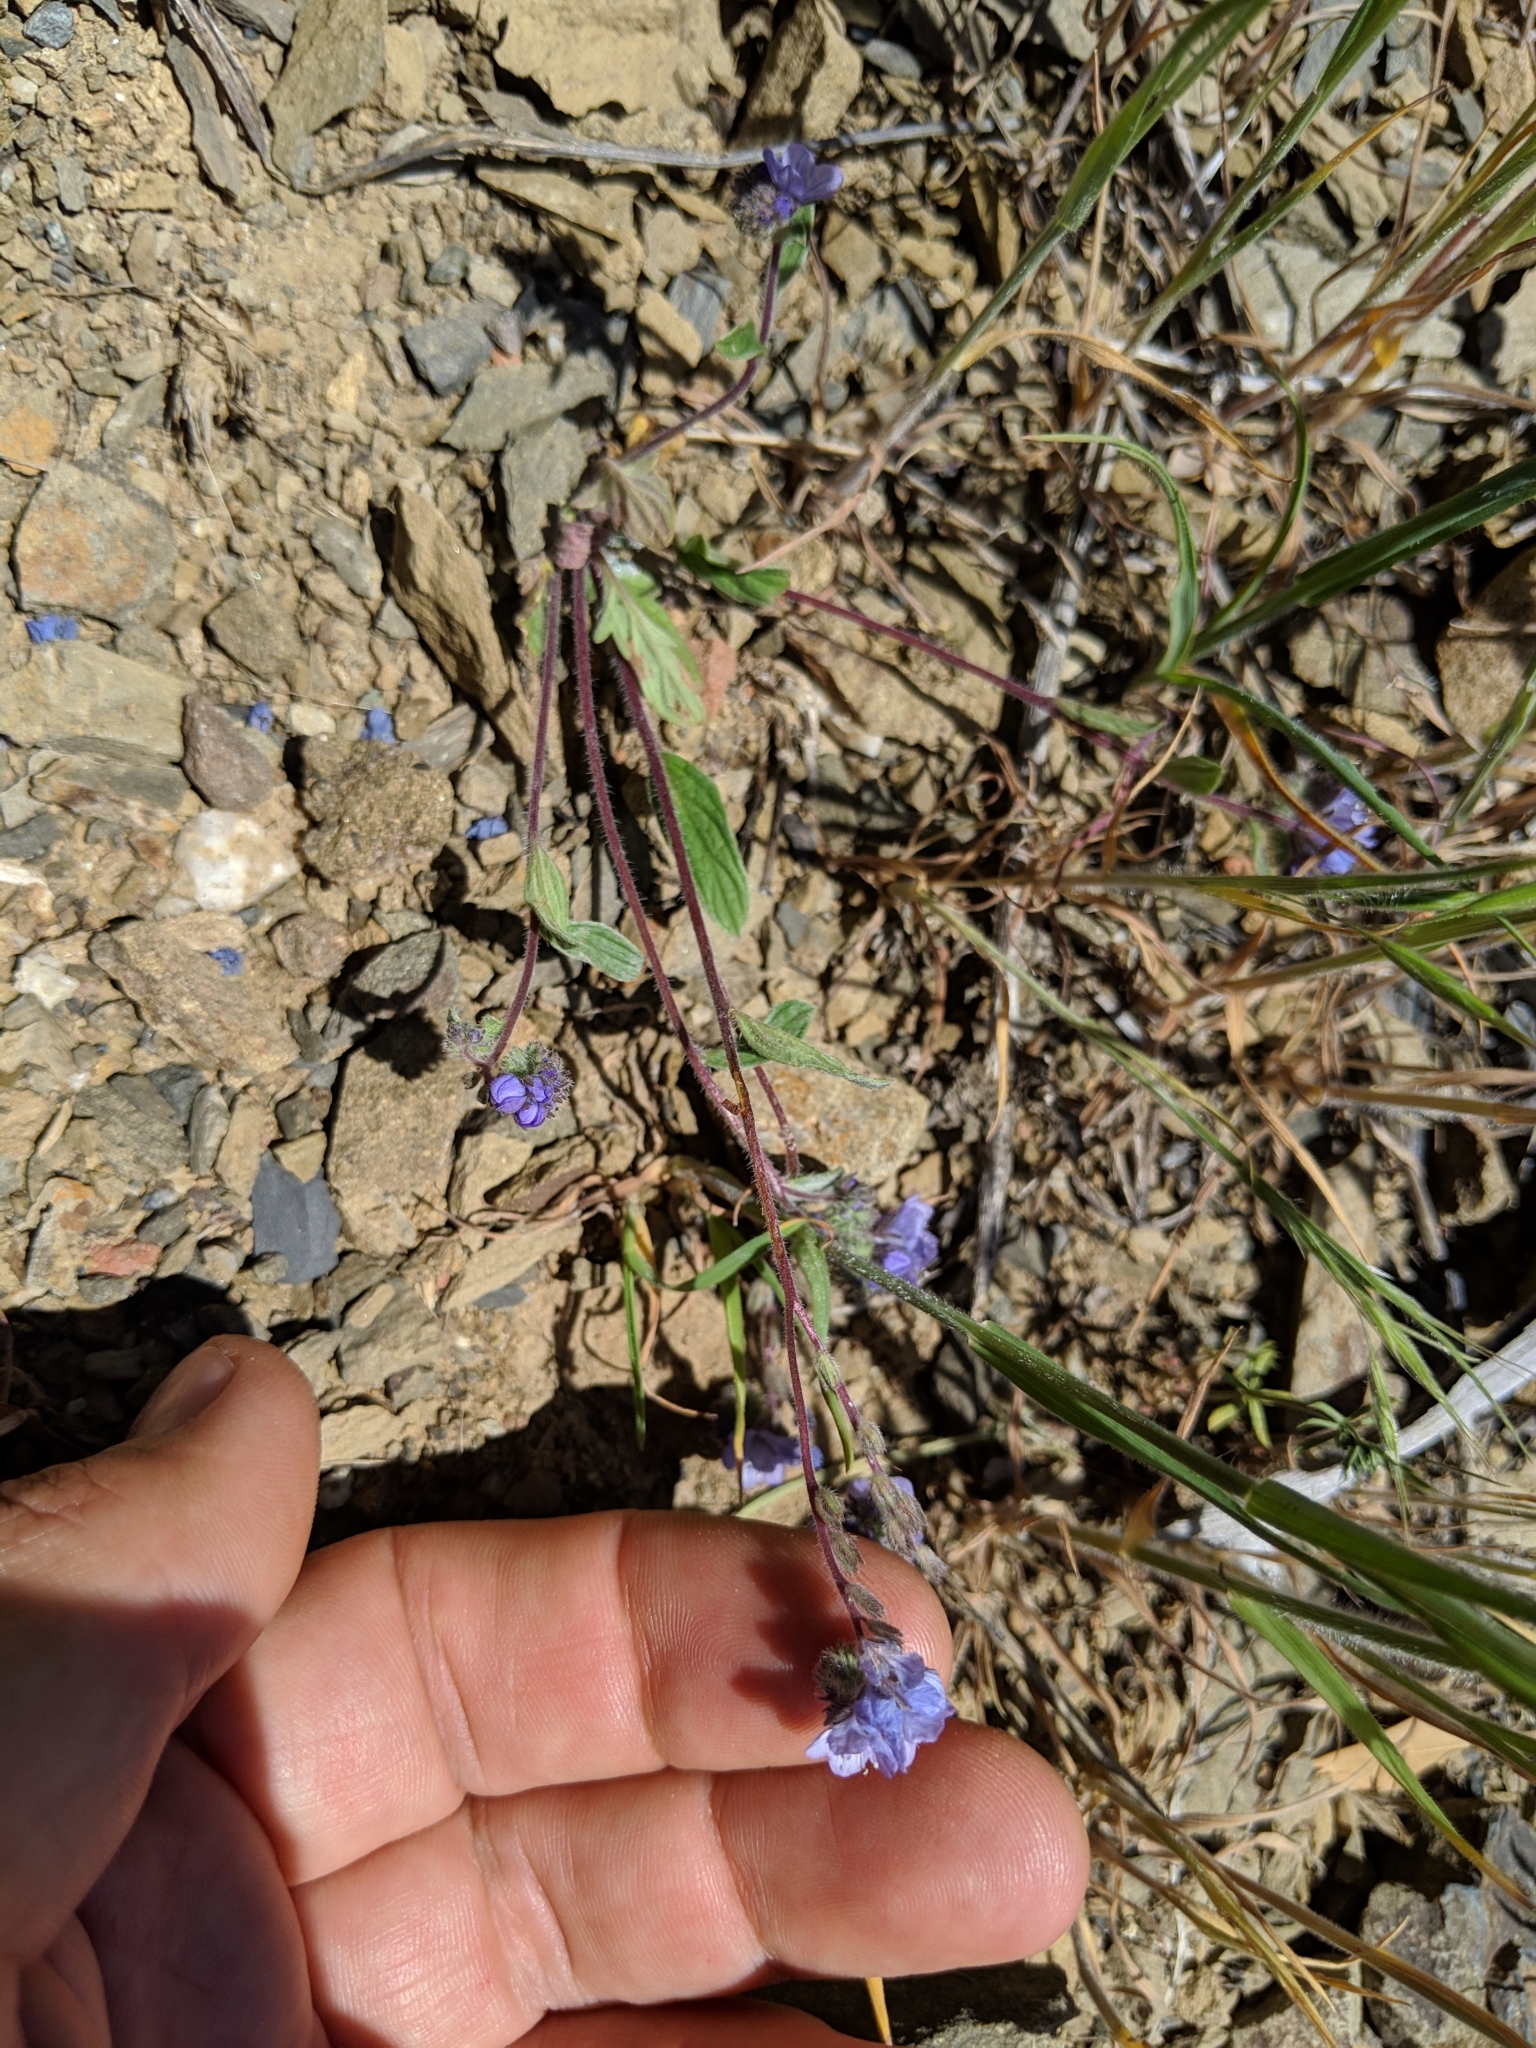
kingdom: Plantae
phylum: Tracheophyta
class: Magnoliopsida
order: Boraginales
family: Hydrophyllaceae
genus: Phacelia
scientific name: Phacelia breweri
